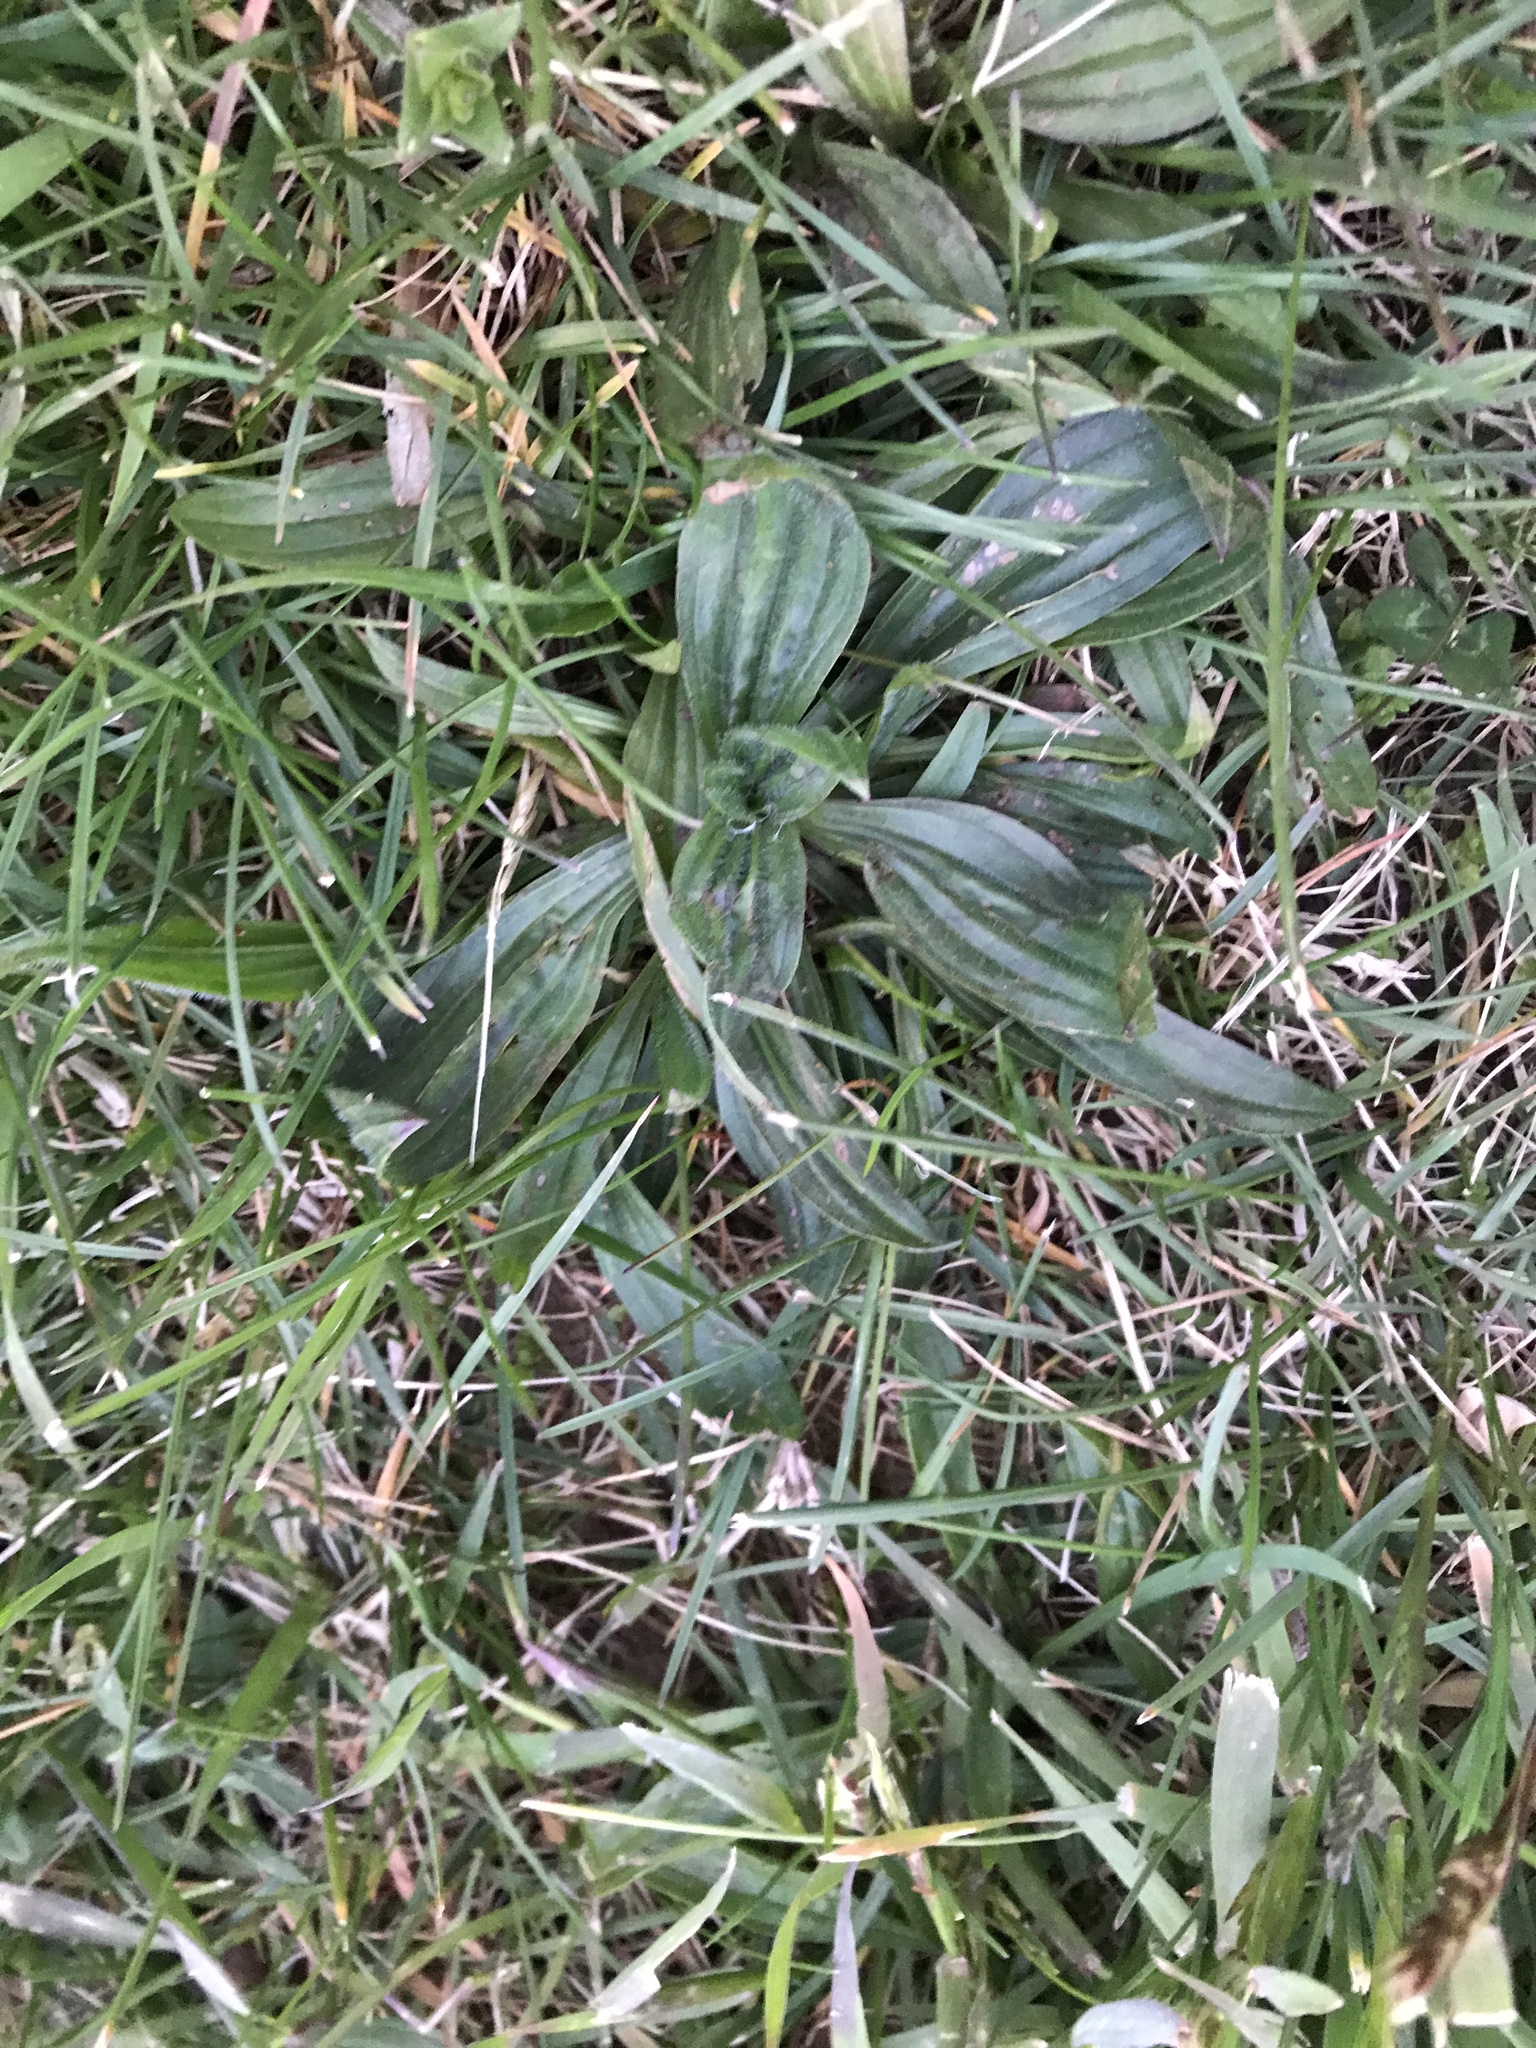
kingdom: Plantae
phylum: Tracheophyta
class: Magnoliopsida
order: Lamiales
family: Plantaginaceae
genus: Plantago
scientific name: Plantago lanceolata
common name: Ribwort plantain
